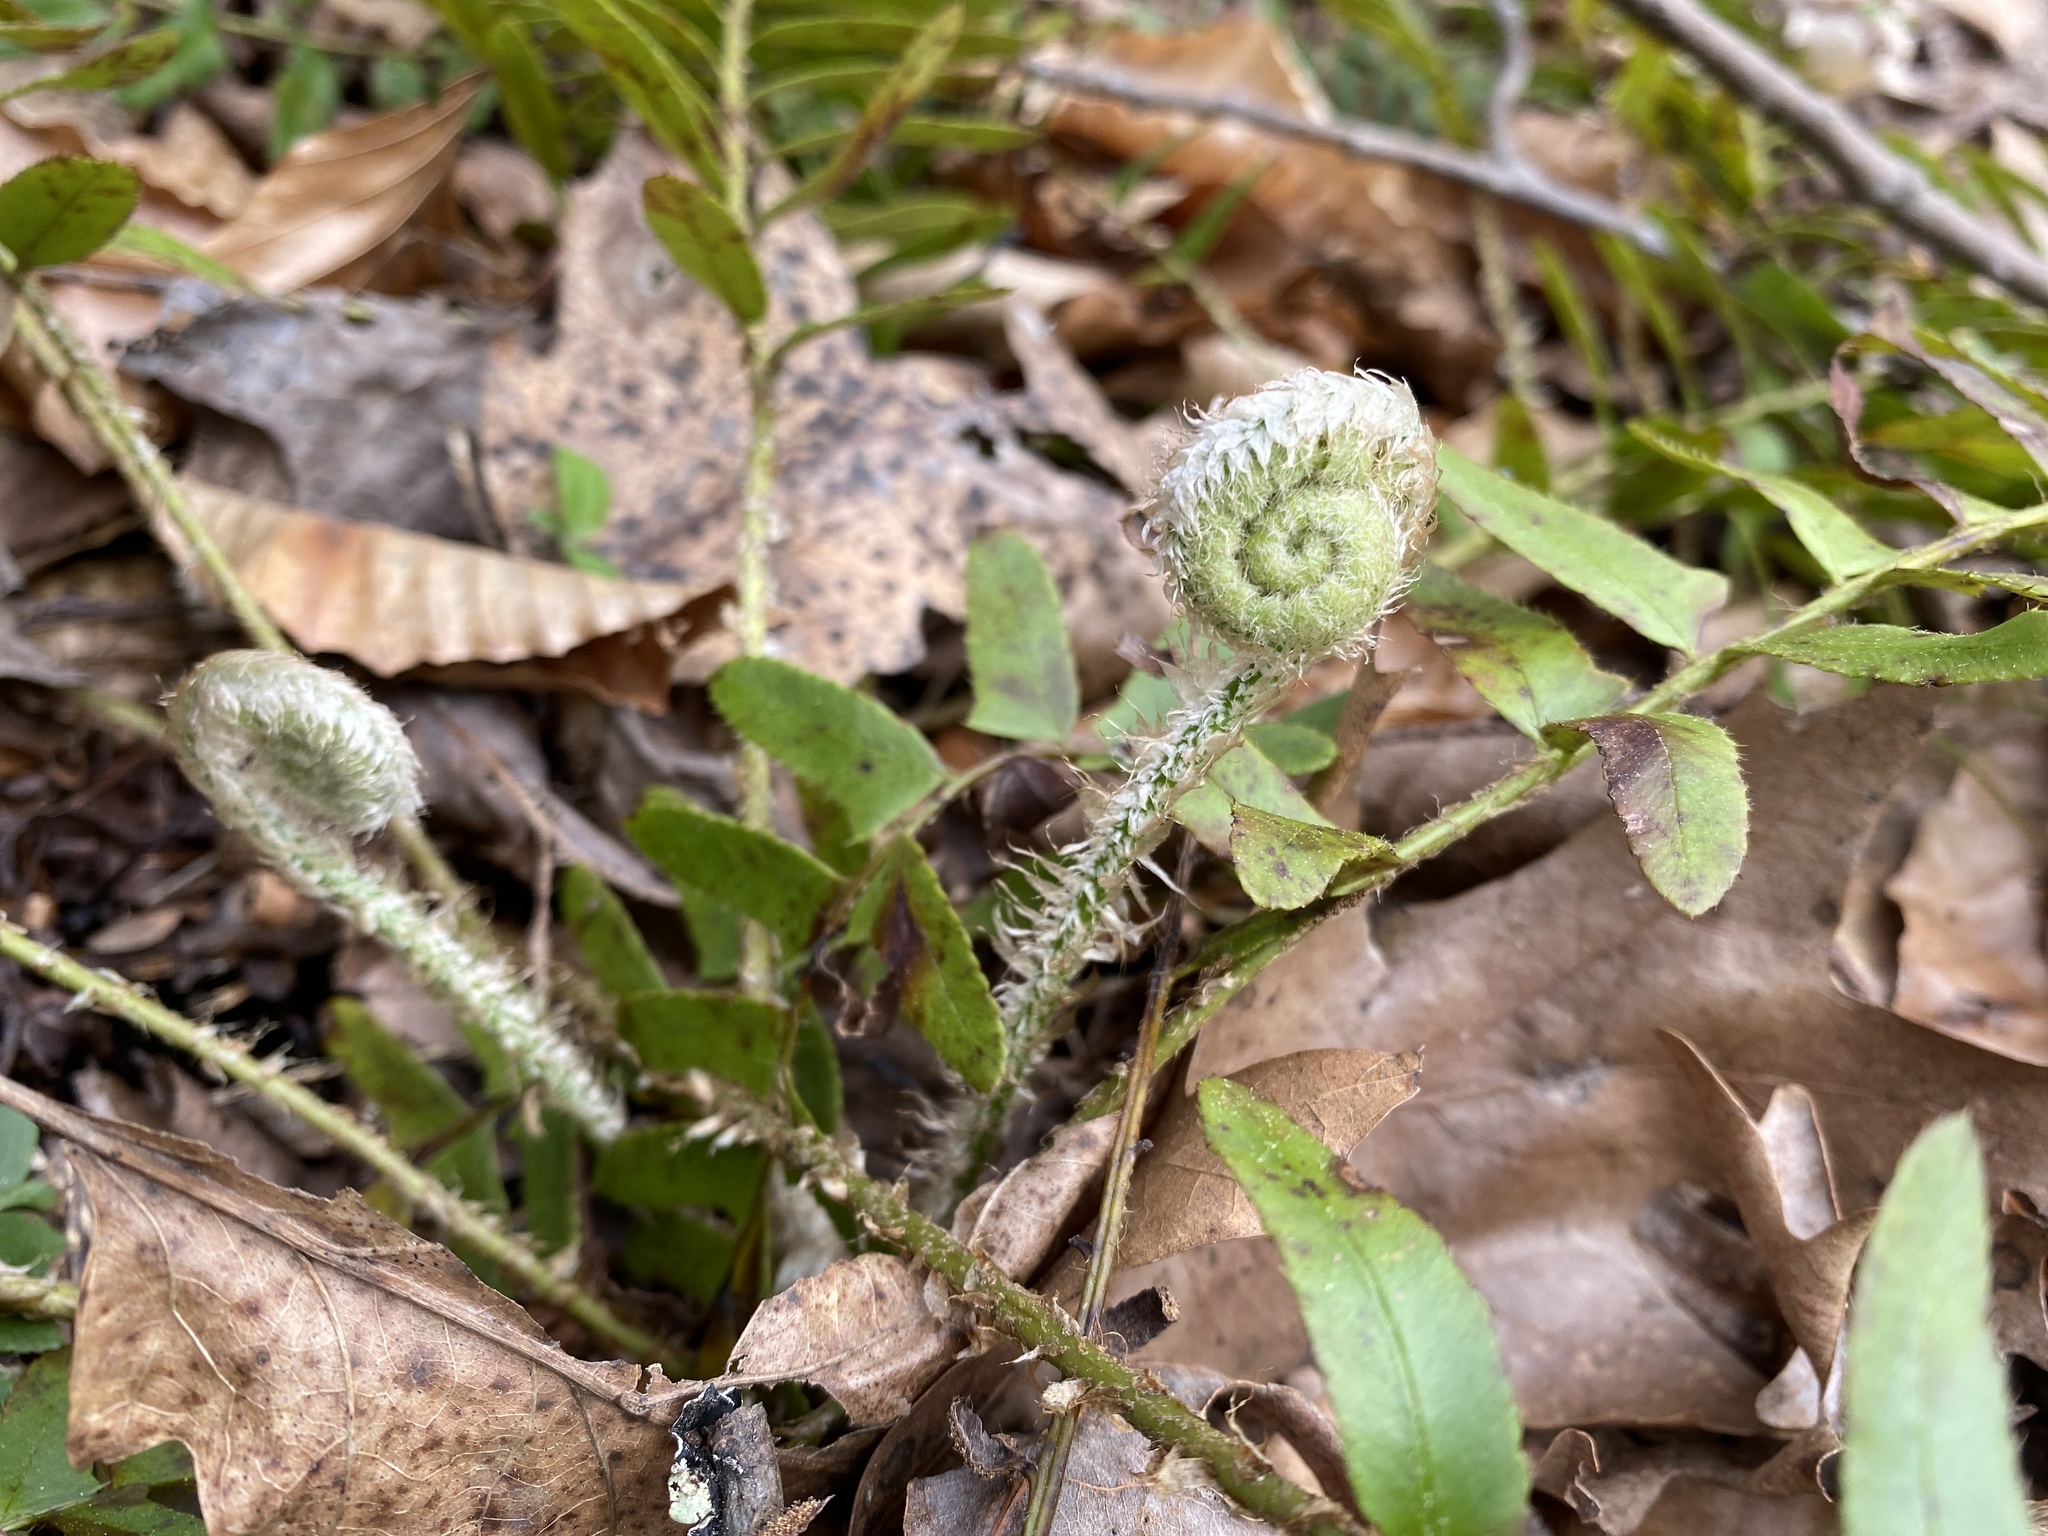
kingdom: Plantae
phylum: Tracheophyta
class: Polypodiopsida
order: Polypodiales
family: Dryopteridaceae
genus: Polystichum
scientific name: Polystichum acrostichoides
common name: Christmas fern
